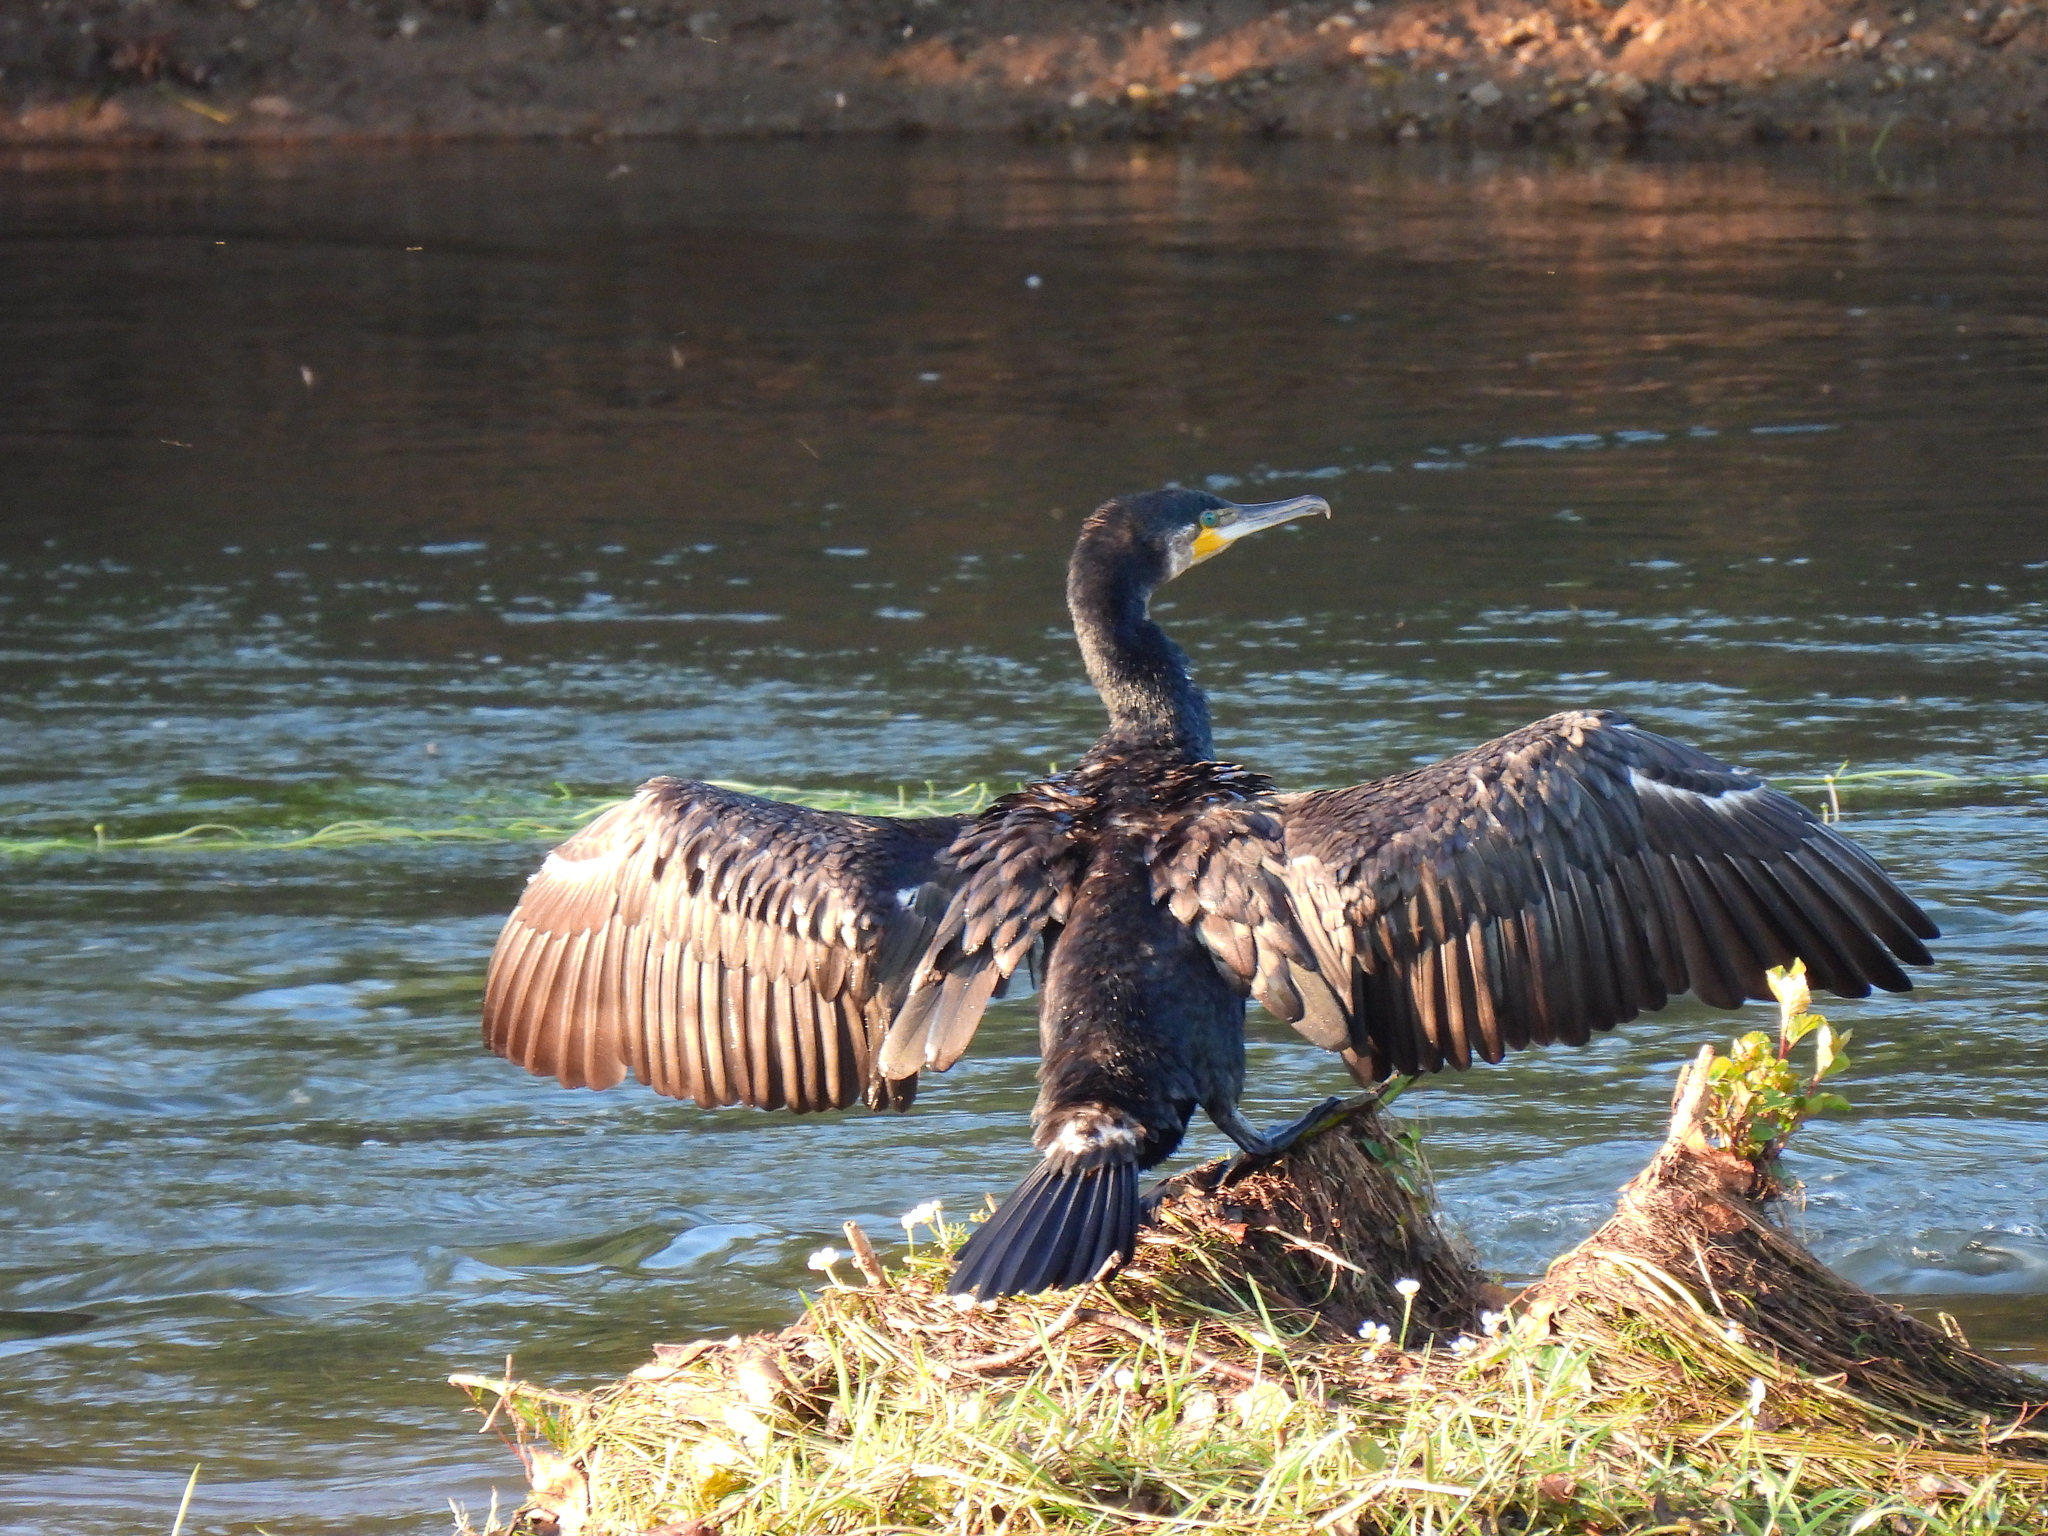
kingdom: Animalia
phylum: Chordata
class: Aves
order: Suliformes
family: Phalacrocoracidae
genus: Phalacrocorax
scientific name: Phalacrocorax carbo
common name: Great cormorant
